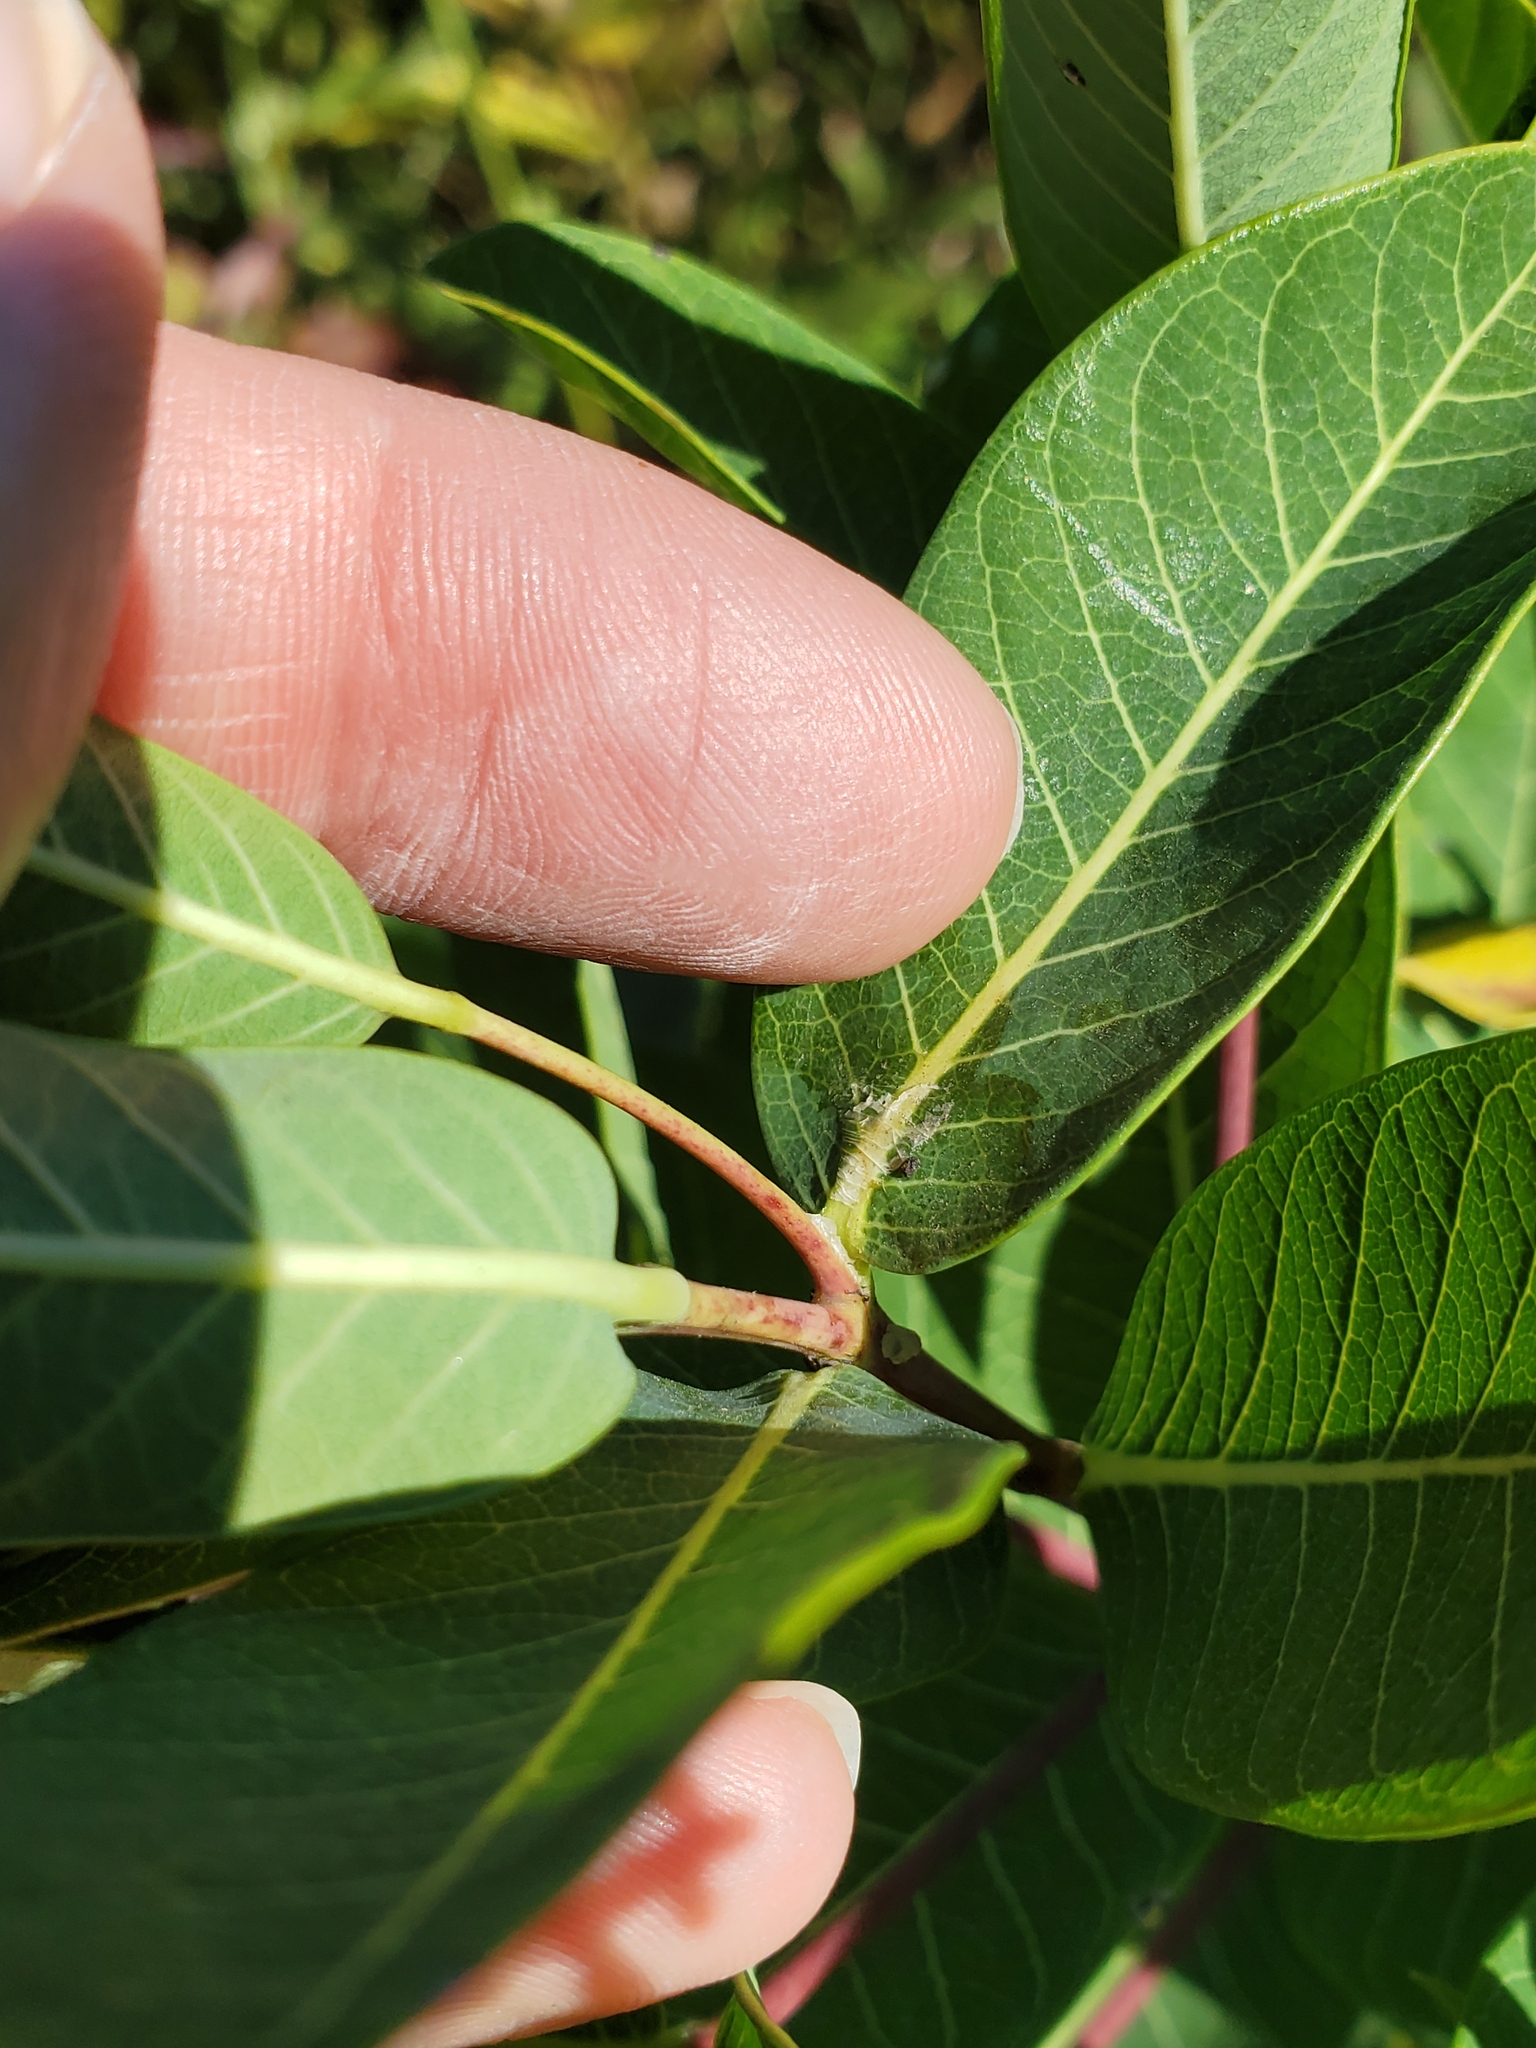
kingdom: Plantae
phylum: Tracheophyta
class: Magnoliopsida
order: Gentianales
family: Apocynaceae
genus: Apocynum
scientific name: Apocynum cannabinum
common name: Hemp dogbane
